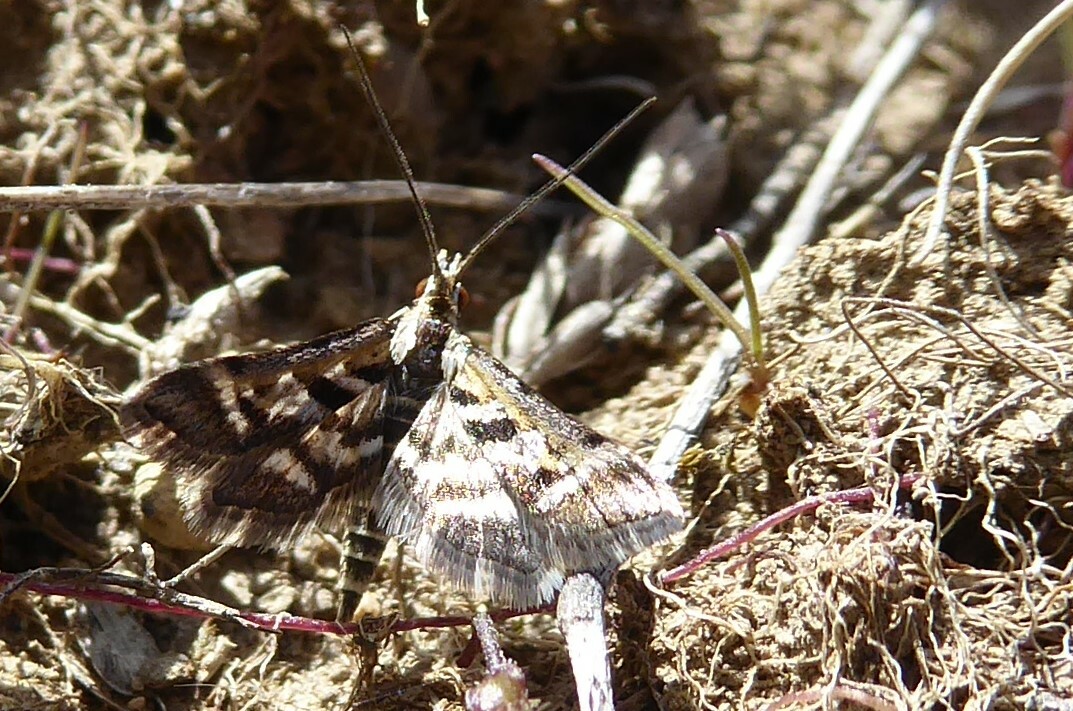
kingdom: Animalia
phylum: Arthropoda
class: Insecta
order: Lepidoptera
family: Crambidae
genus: Diasemia
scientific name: Diasemia grammalis
